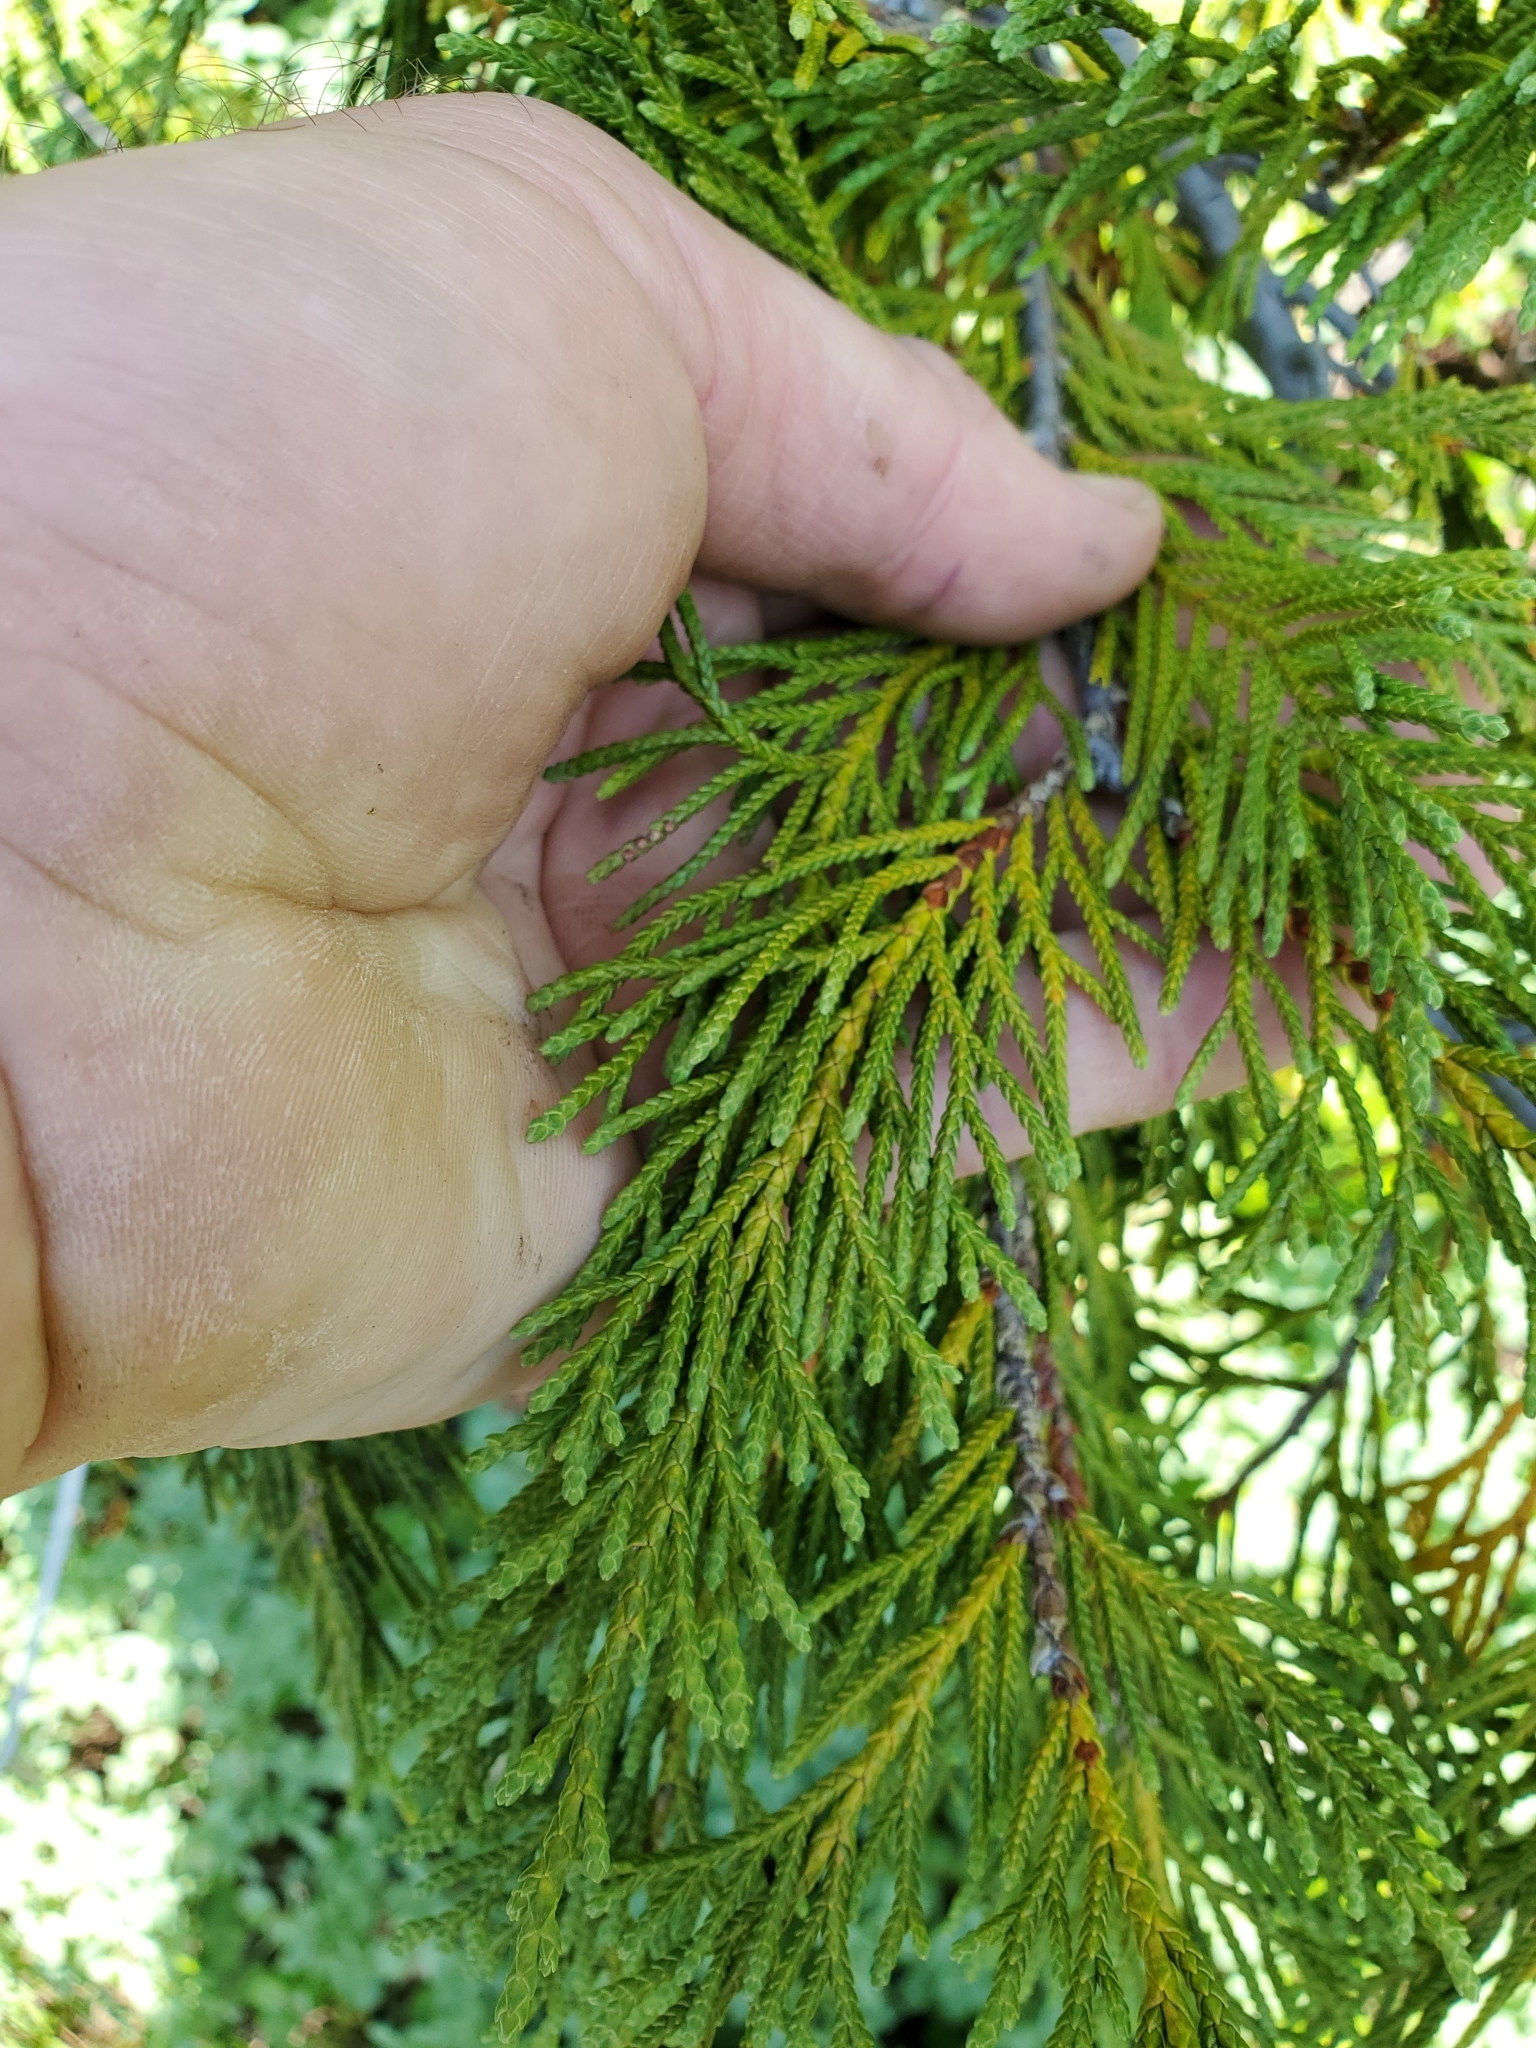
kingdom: Plantae
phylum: Tracheophyta
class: Pinopsida
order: Pinales
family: Cupressaceae
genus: Xanthocyparis
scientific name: Xanthocyparis nootkatensis
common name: Nootka cypress
